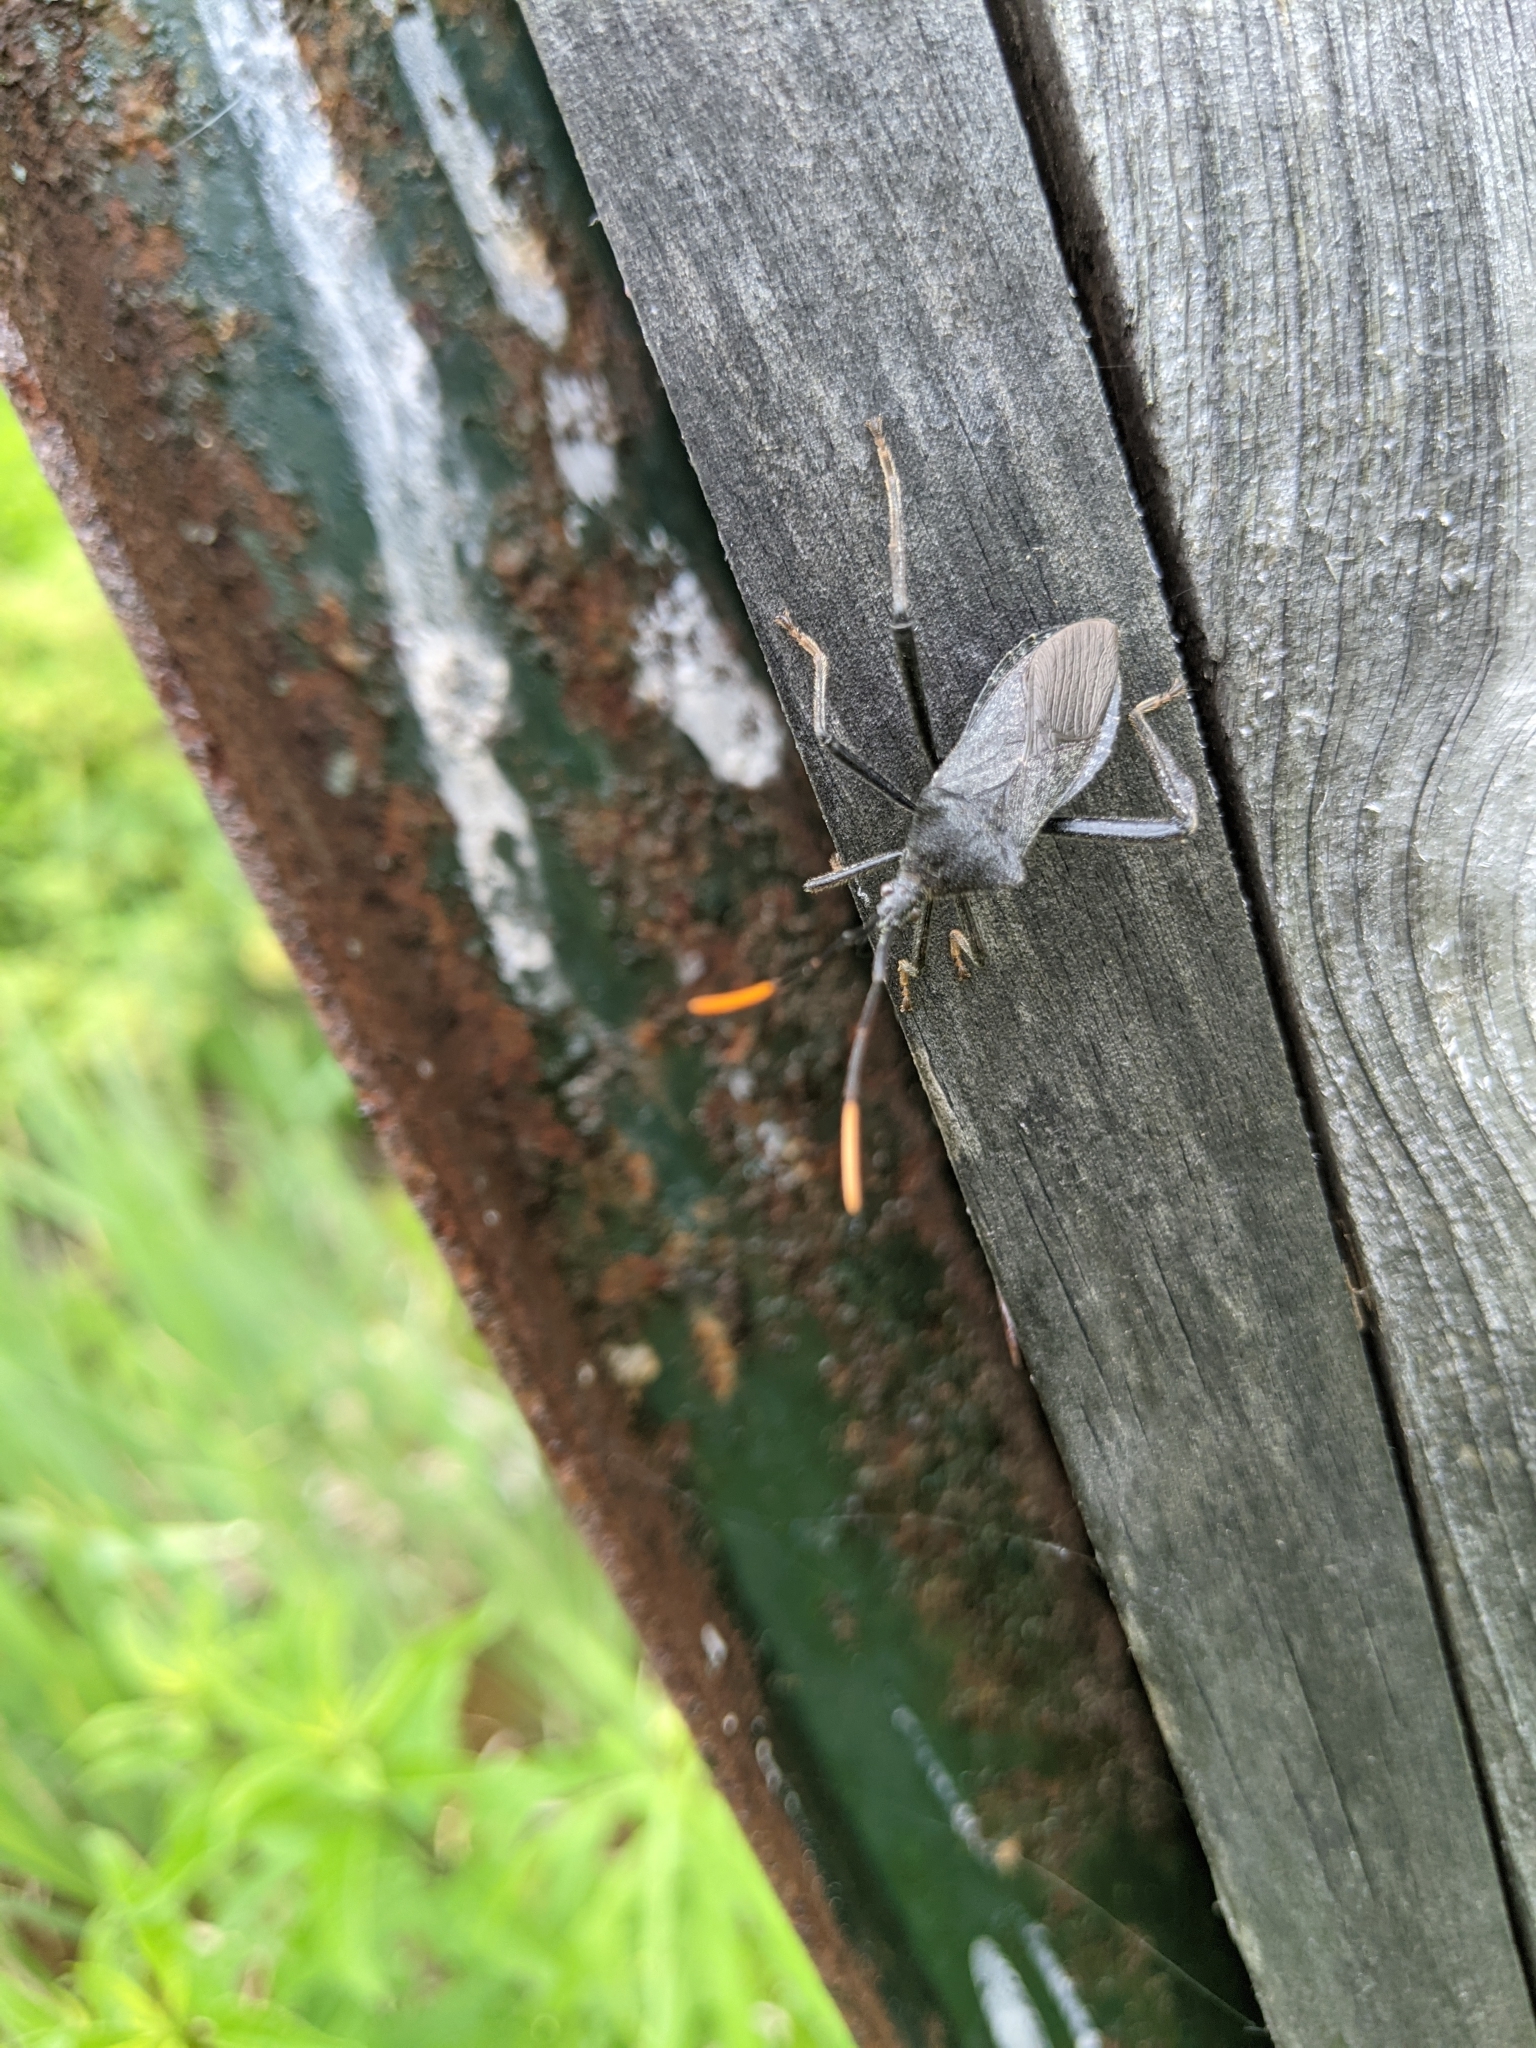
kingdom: Animalia
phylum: Arthropoda
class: Insecta
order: Hemiptera
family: Coreidae
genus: Acanthocephala
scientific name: Acanthocephala terminalis
